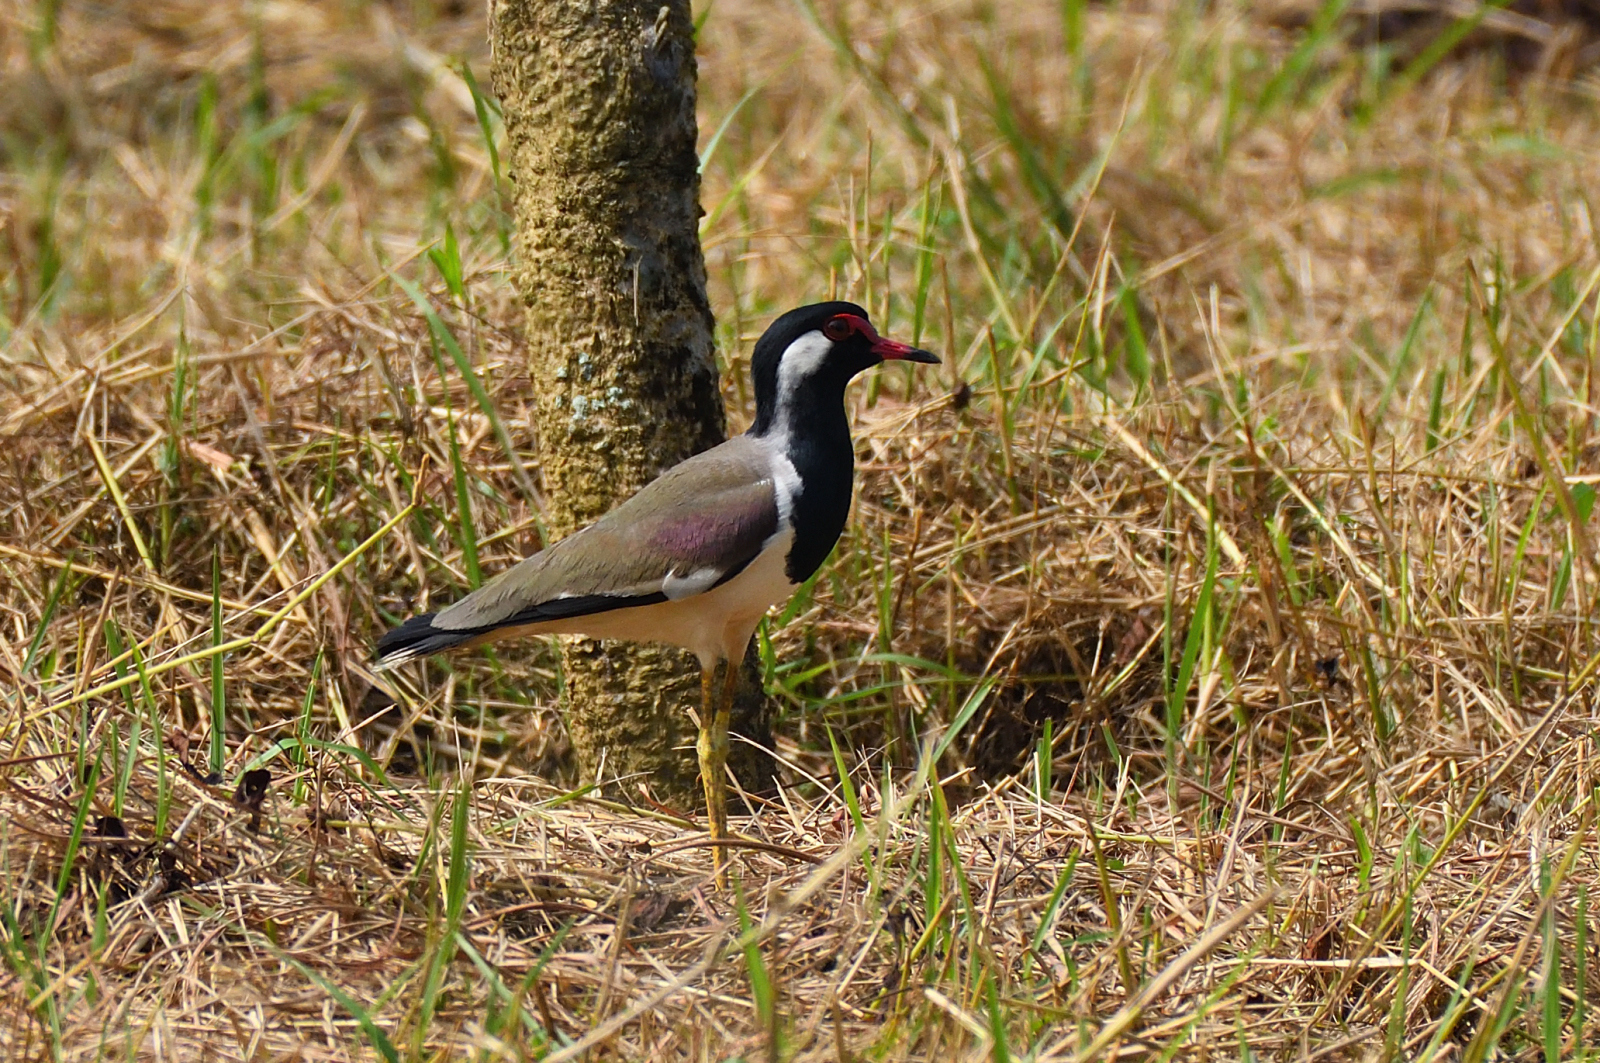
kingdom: Animalia
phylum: Chordata
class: Aves
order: Charadriiformes
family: Charadriidae
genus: Vanellus
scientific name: Vanellus indicus
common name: Red-wattled lapwing
